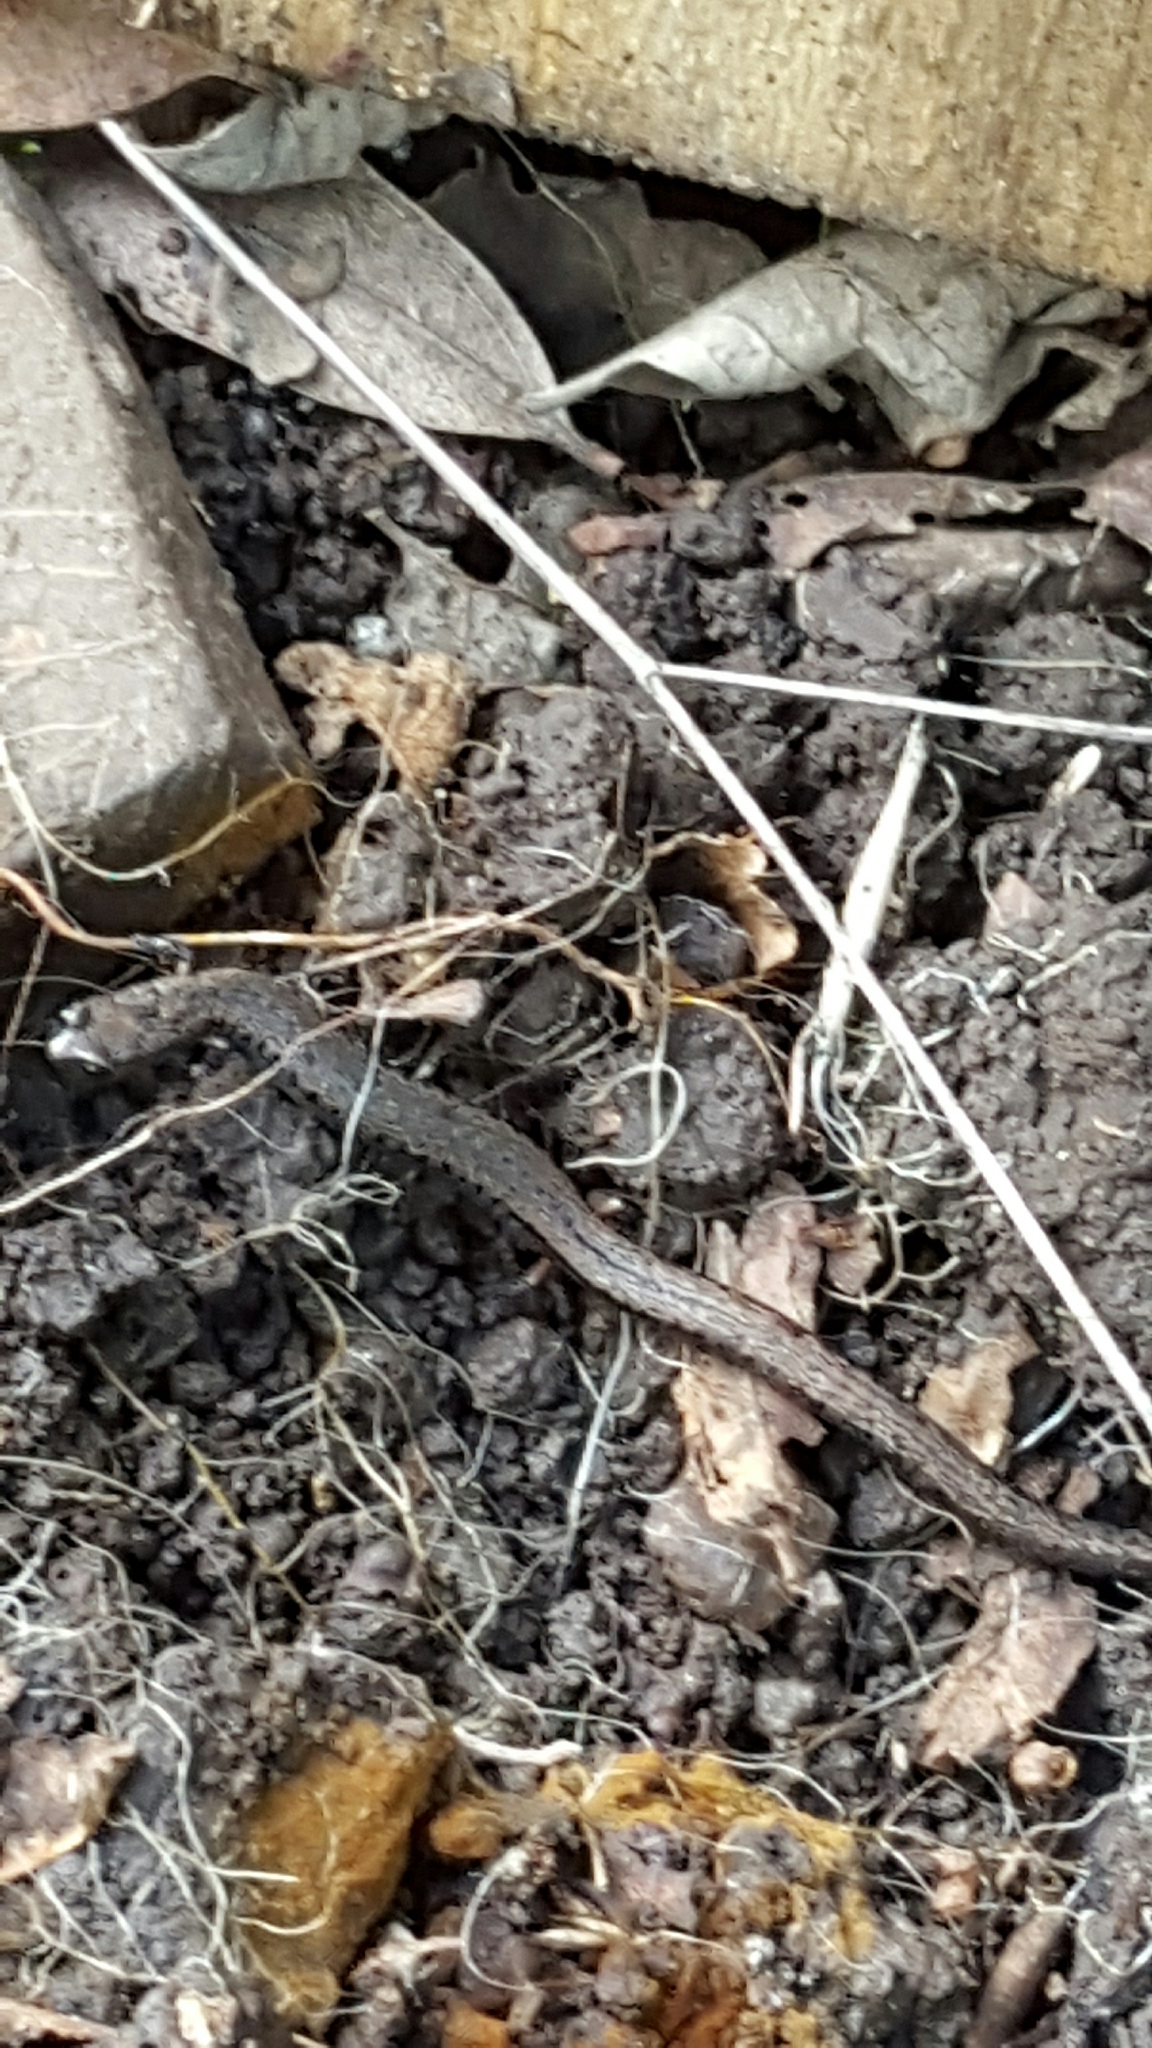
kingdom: Animalia
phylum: Chordata
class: Amphibia
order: Caudata
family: Plethodontidae
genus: Batrachoseps
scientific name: Batrachoseps attenuatus
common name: California slender salamander
